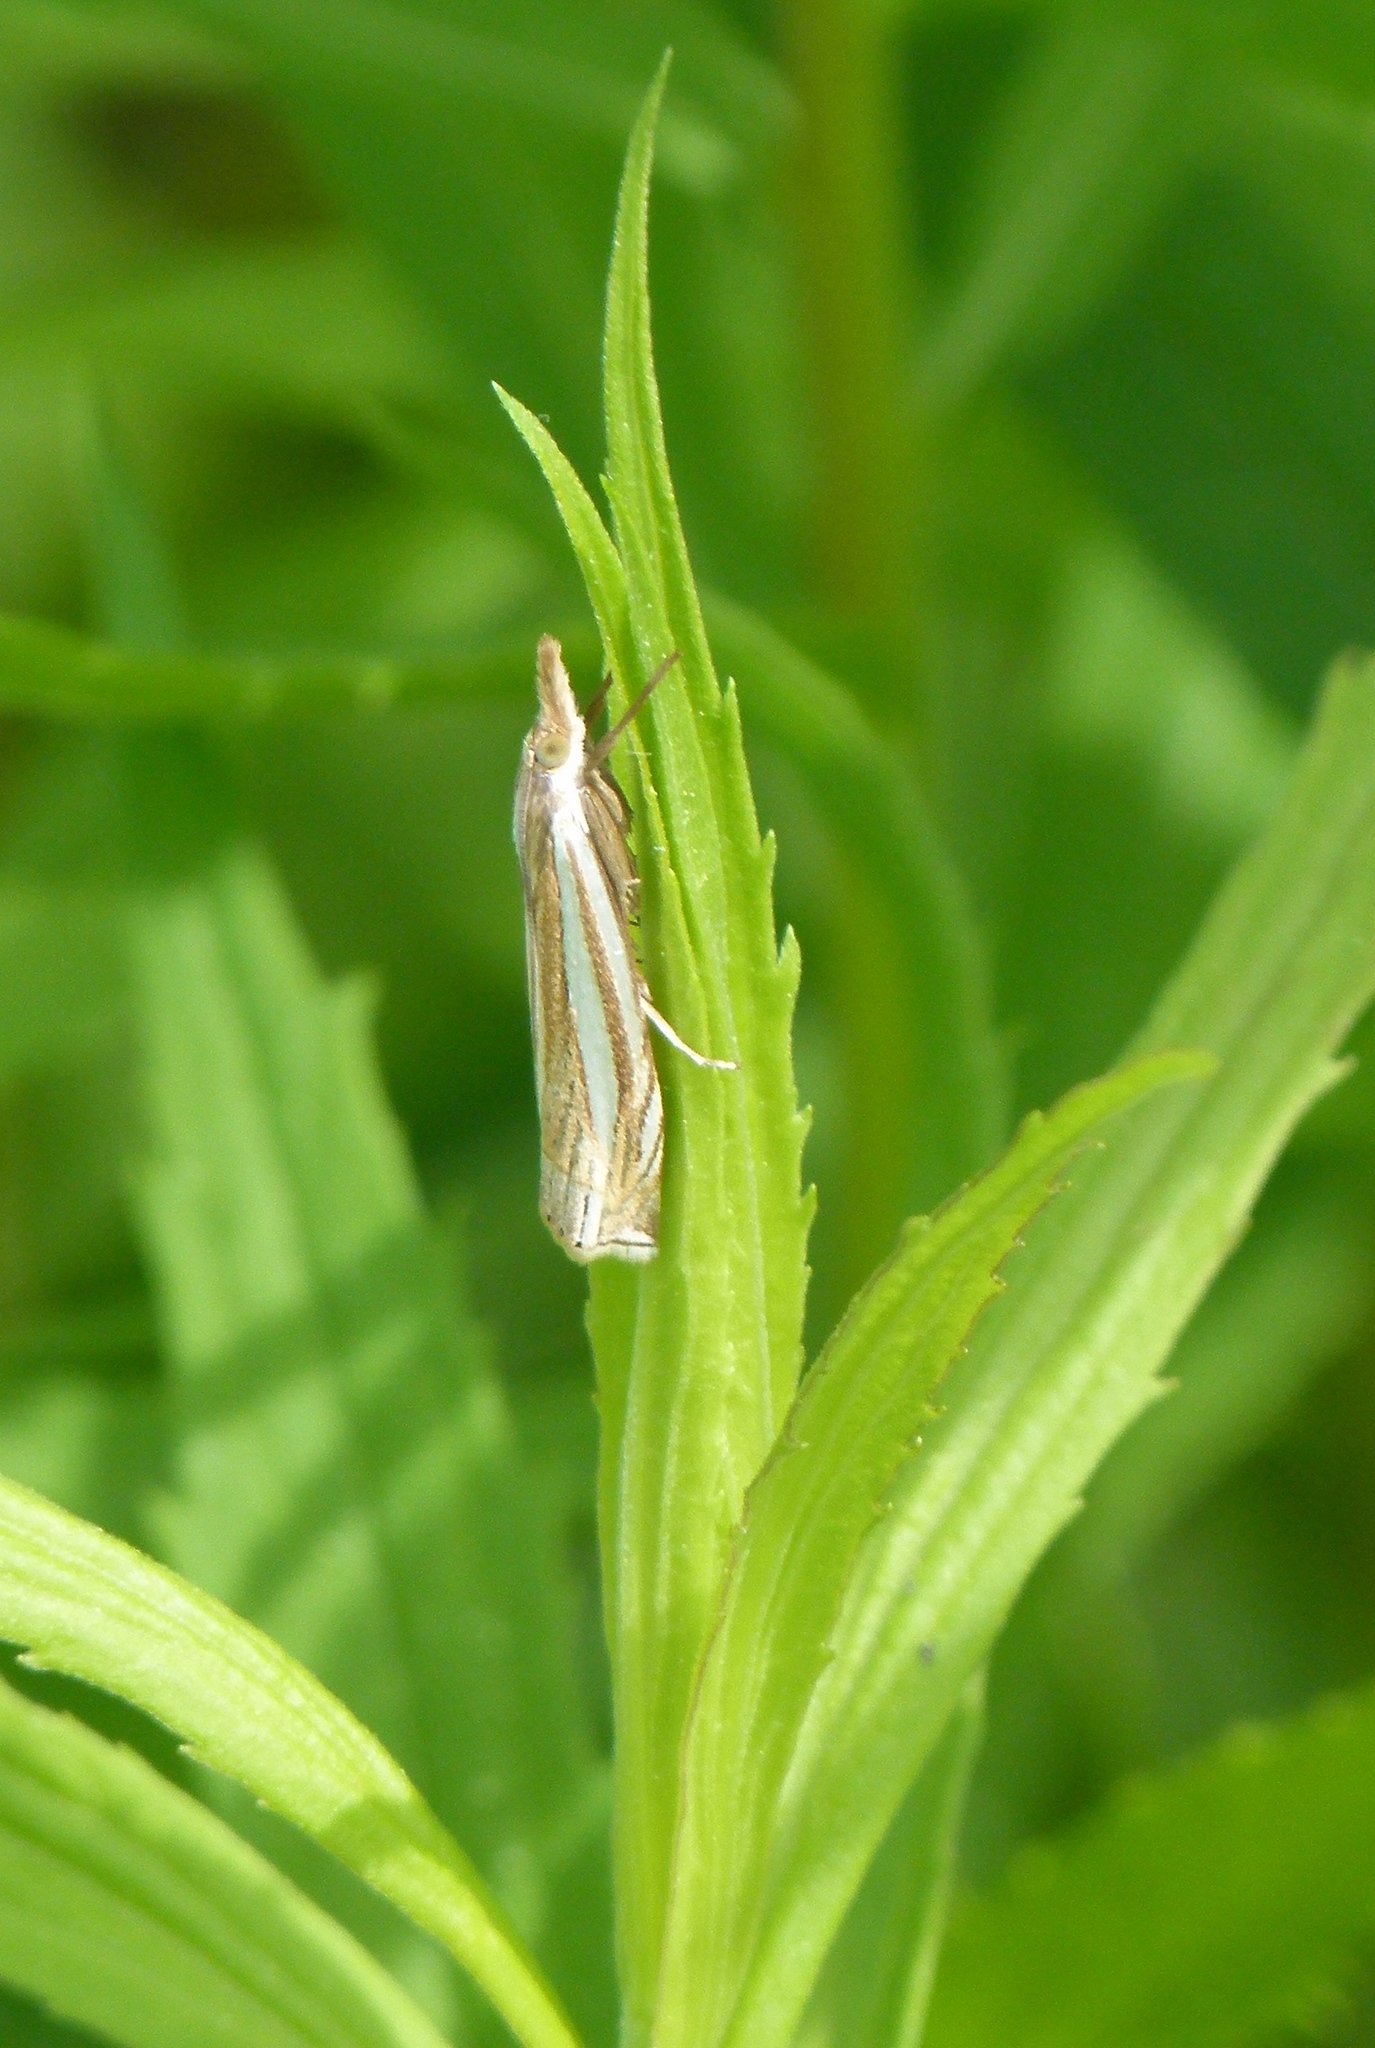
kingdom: Animalia
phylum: Arthropoda
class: Insecta
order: Lepidoptera
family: Crambidae
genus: Crambus
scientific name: Crambus laqueatellus
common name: Eastern grass-veneer
